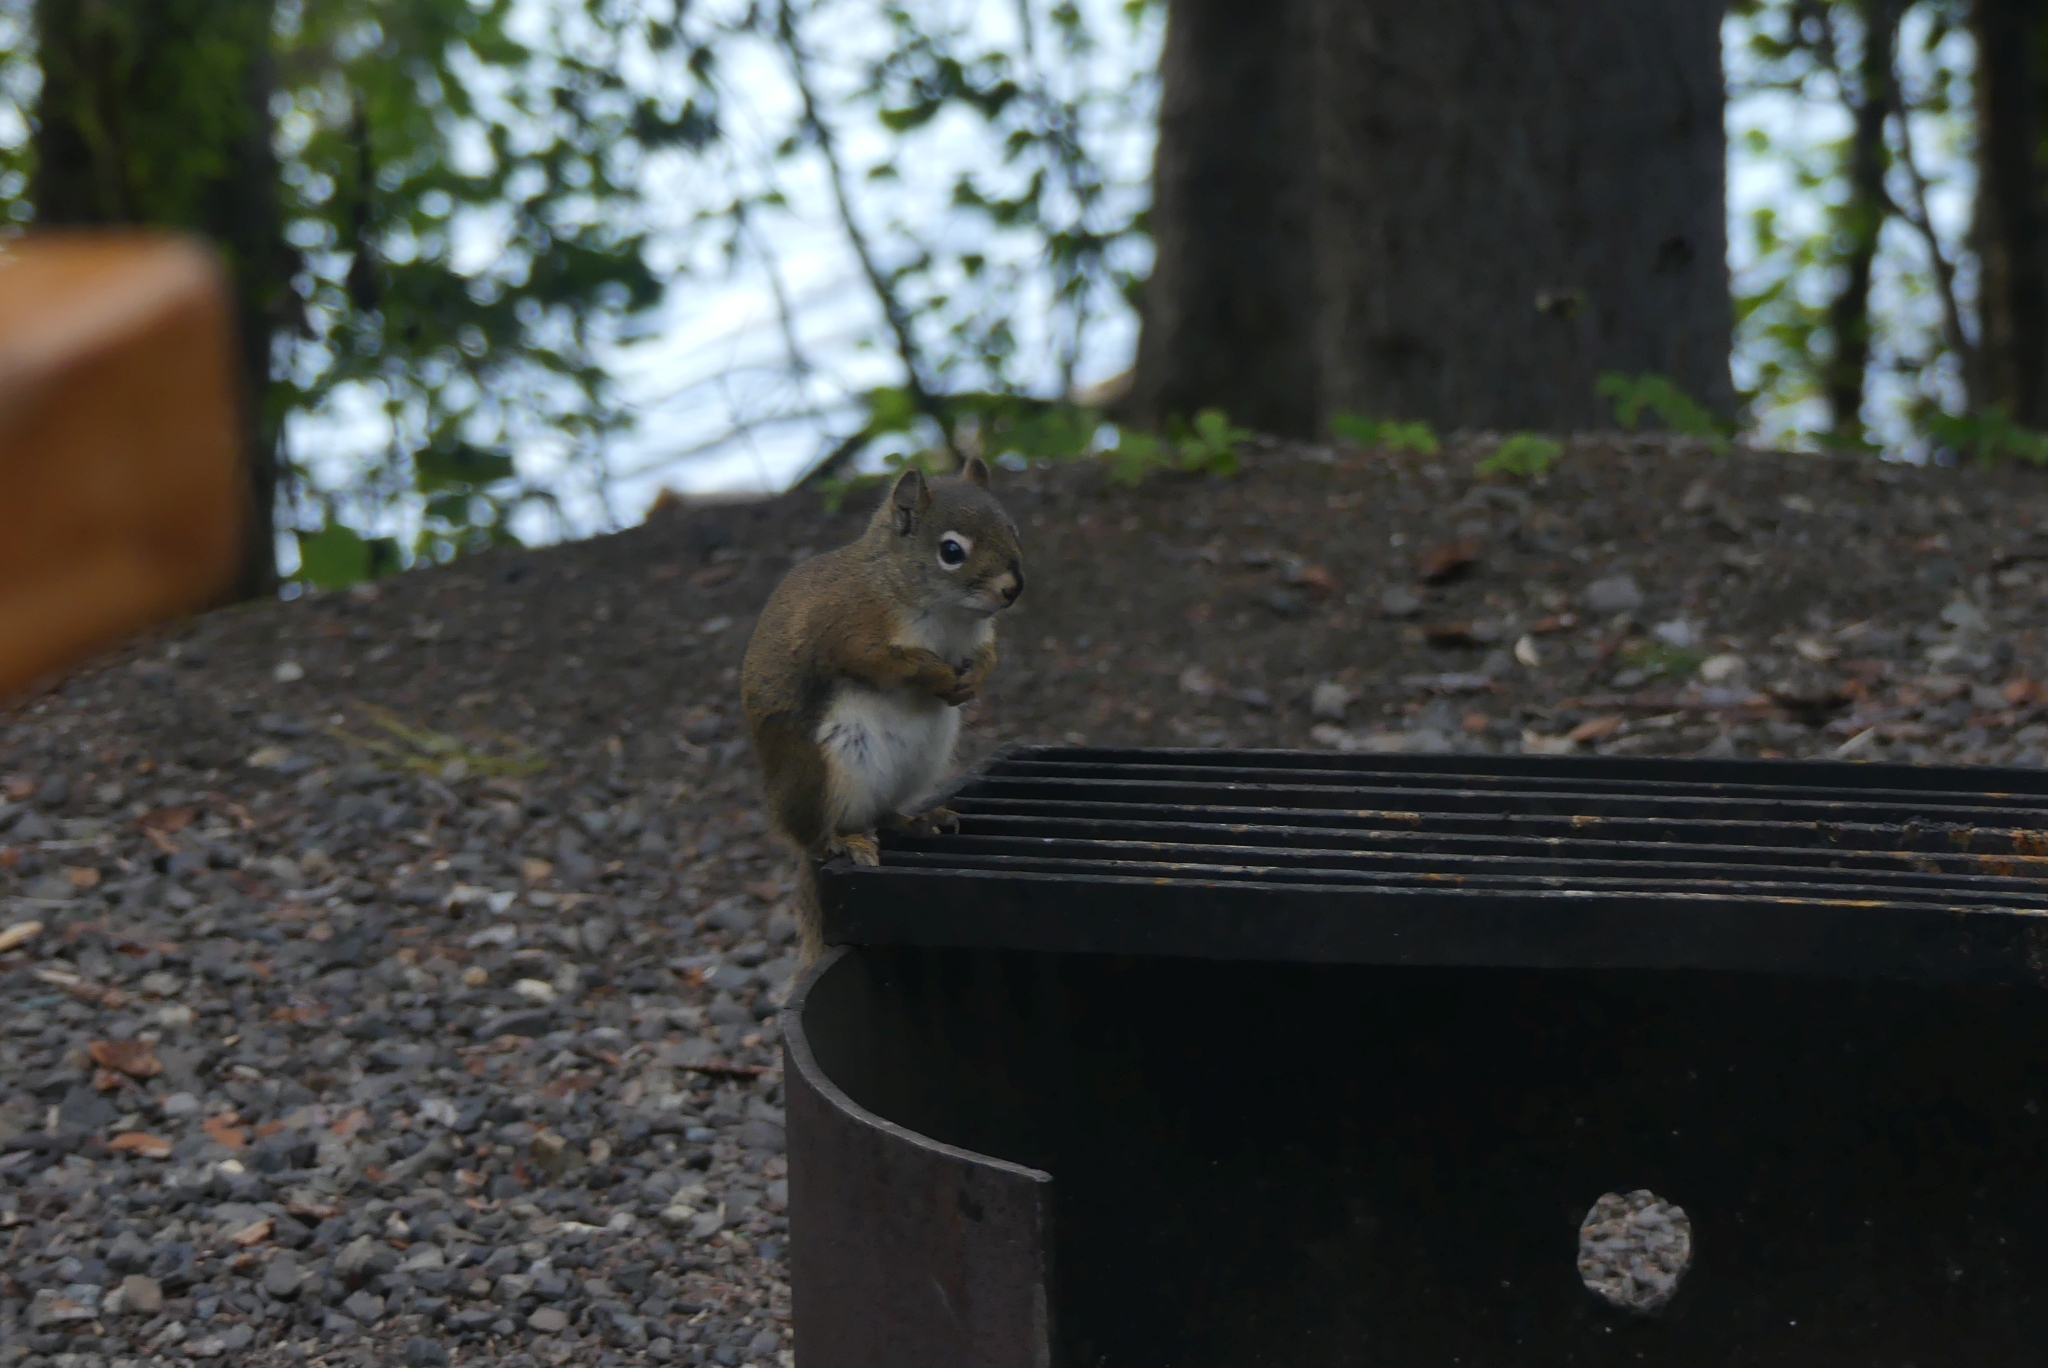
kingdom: Animalia
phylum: Chordata
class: Mammalia
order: Rodentia
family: Sciuridae
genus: Tamiasciurus
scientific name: Tamiasciurus hudsonicus
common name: Red squirrel
